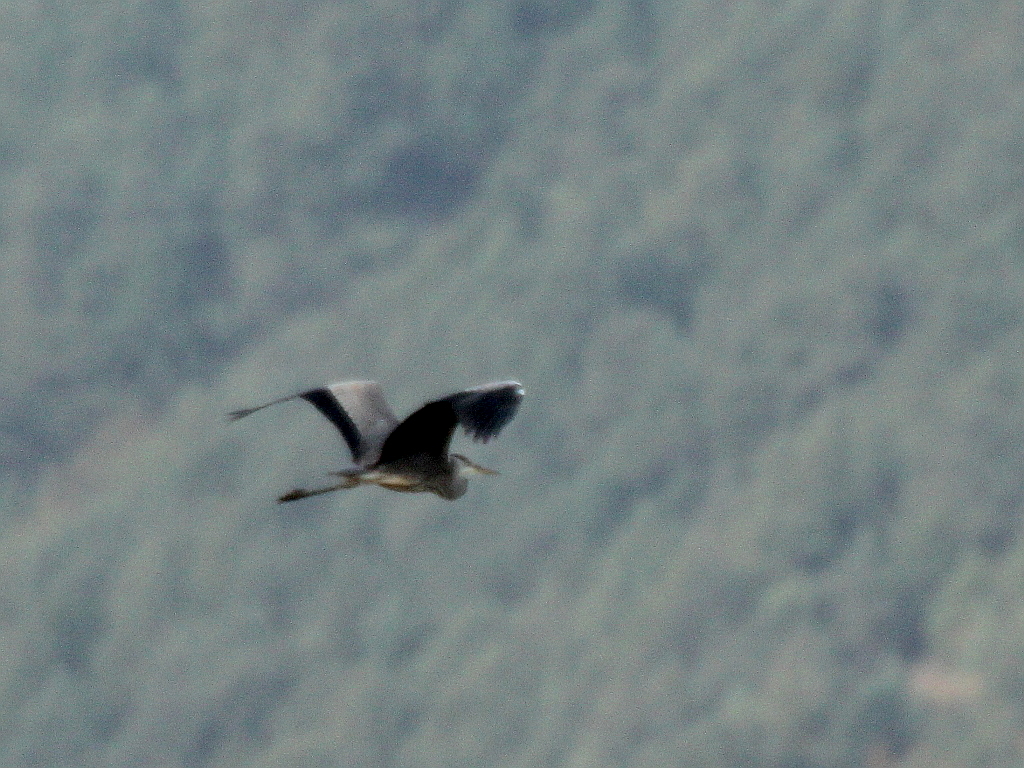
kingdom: Animalia
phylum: Chordata
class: Aves
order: Pelecaniformes
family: Ardeidae
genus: Ardea
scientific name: Ardea cinerea
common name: Grey heron
